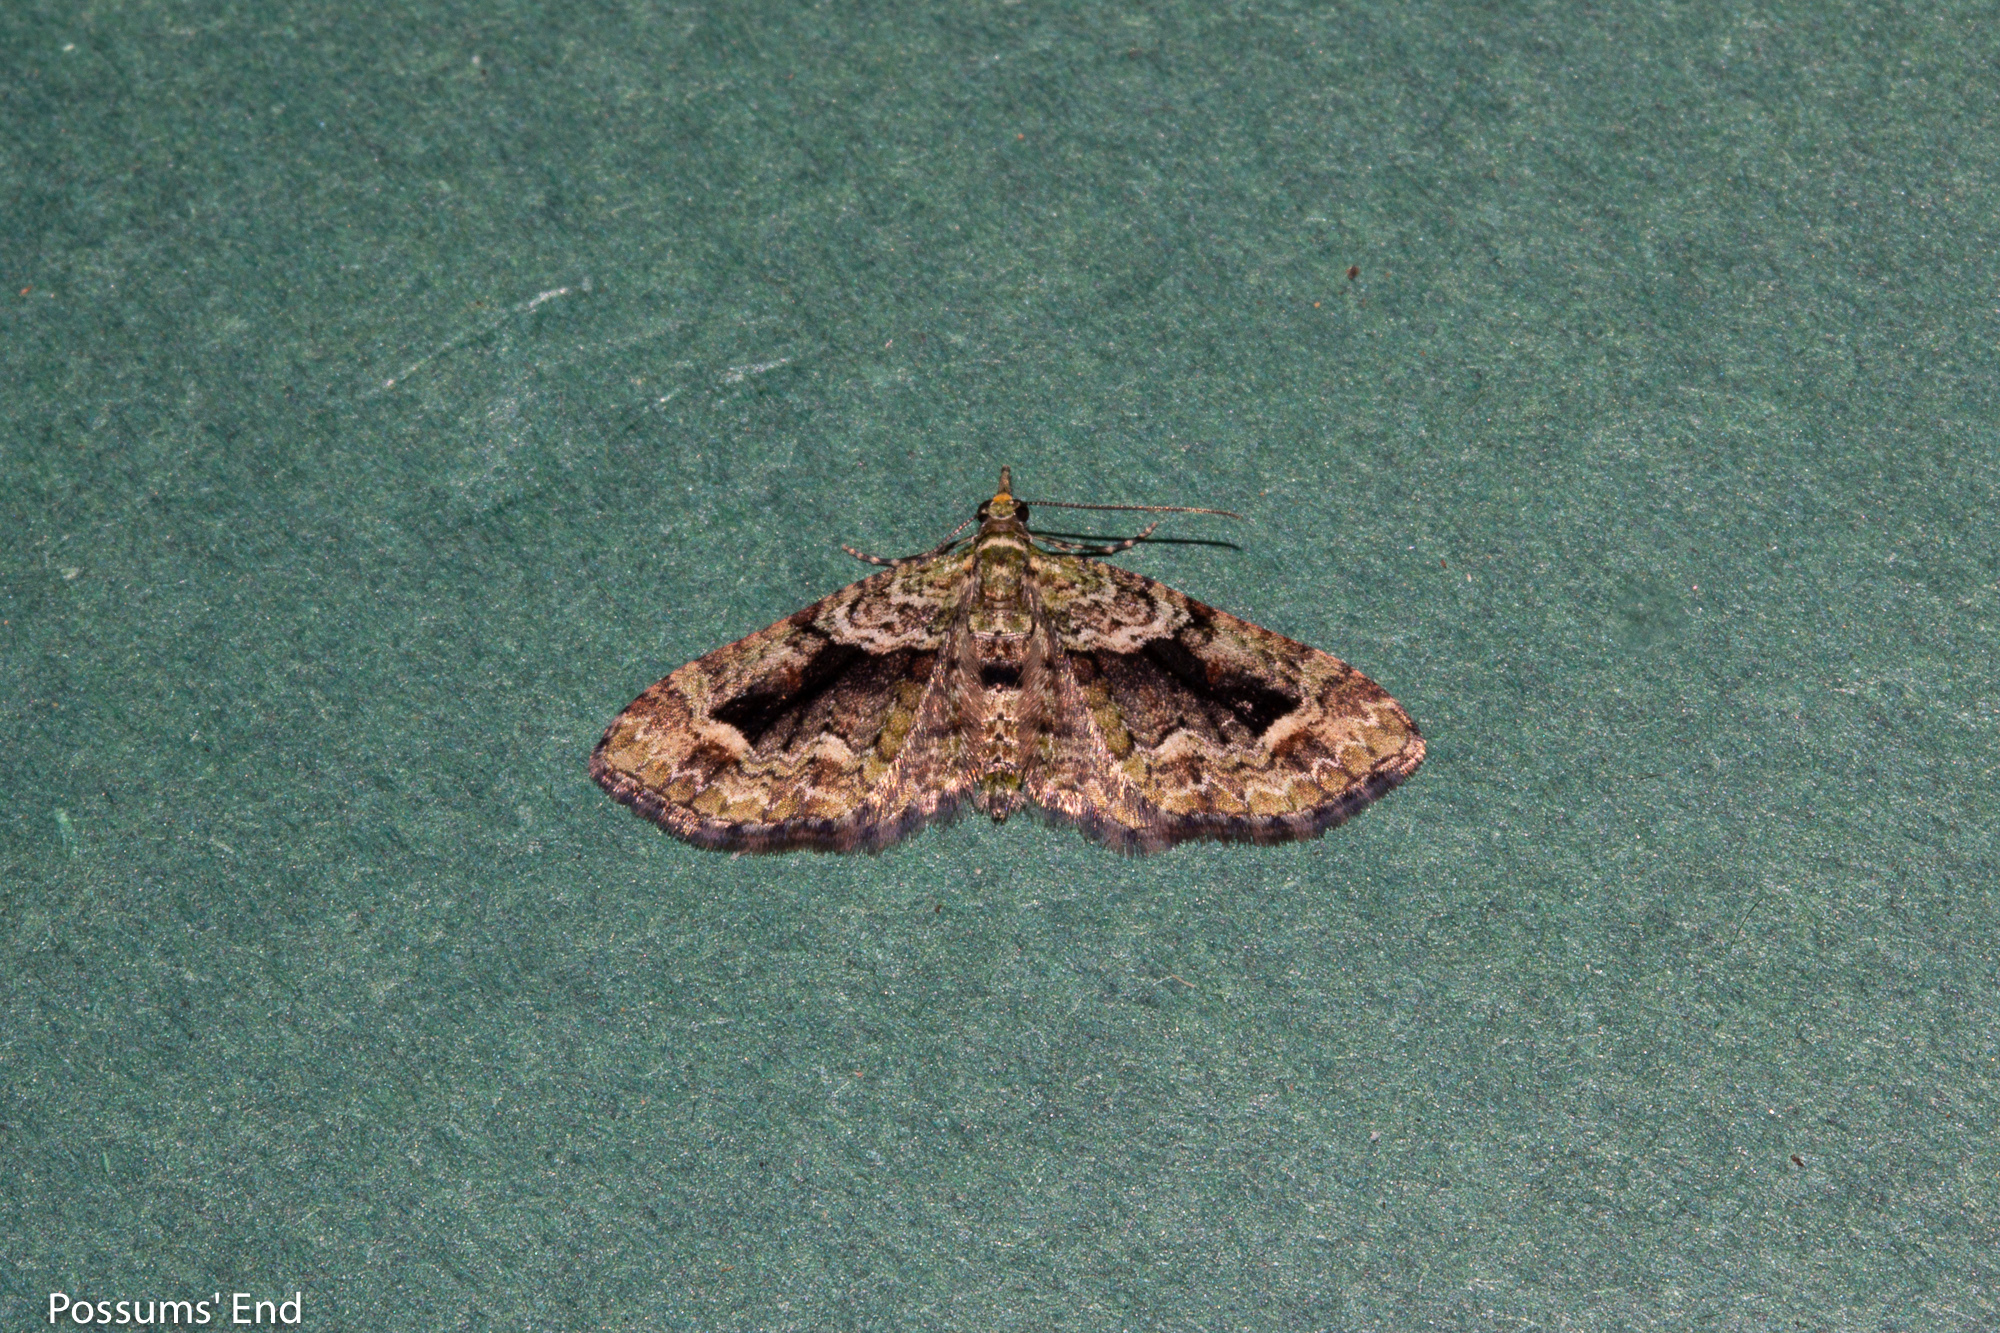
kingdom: Animalia
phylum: Arthropoda
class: Insecta
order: Lepidoptera
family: Geometridae
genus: Pasiphila
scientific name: Pasiphila suffusa
